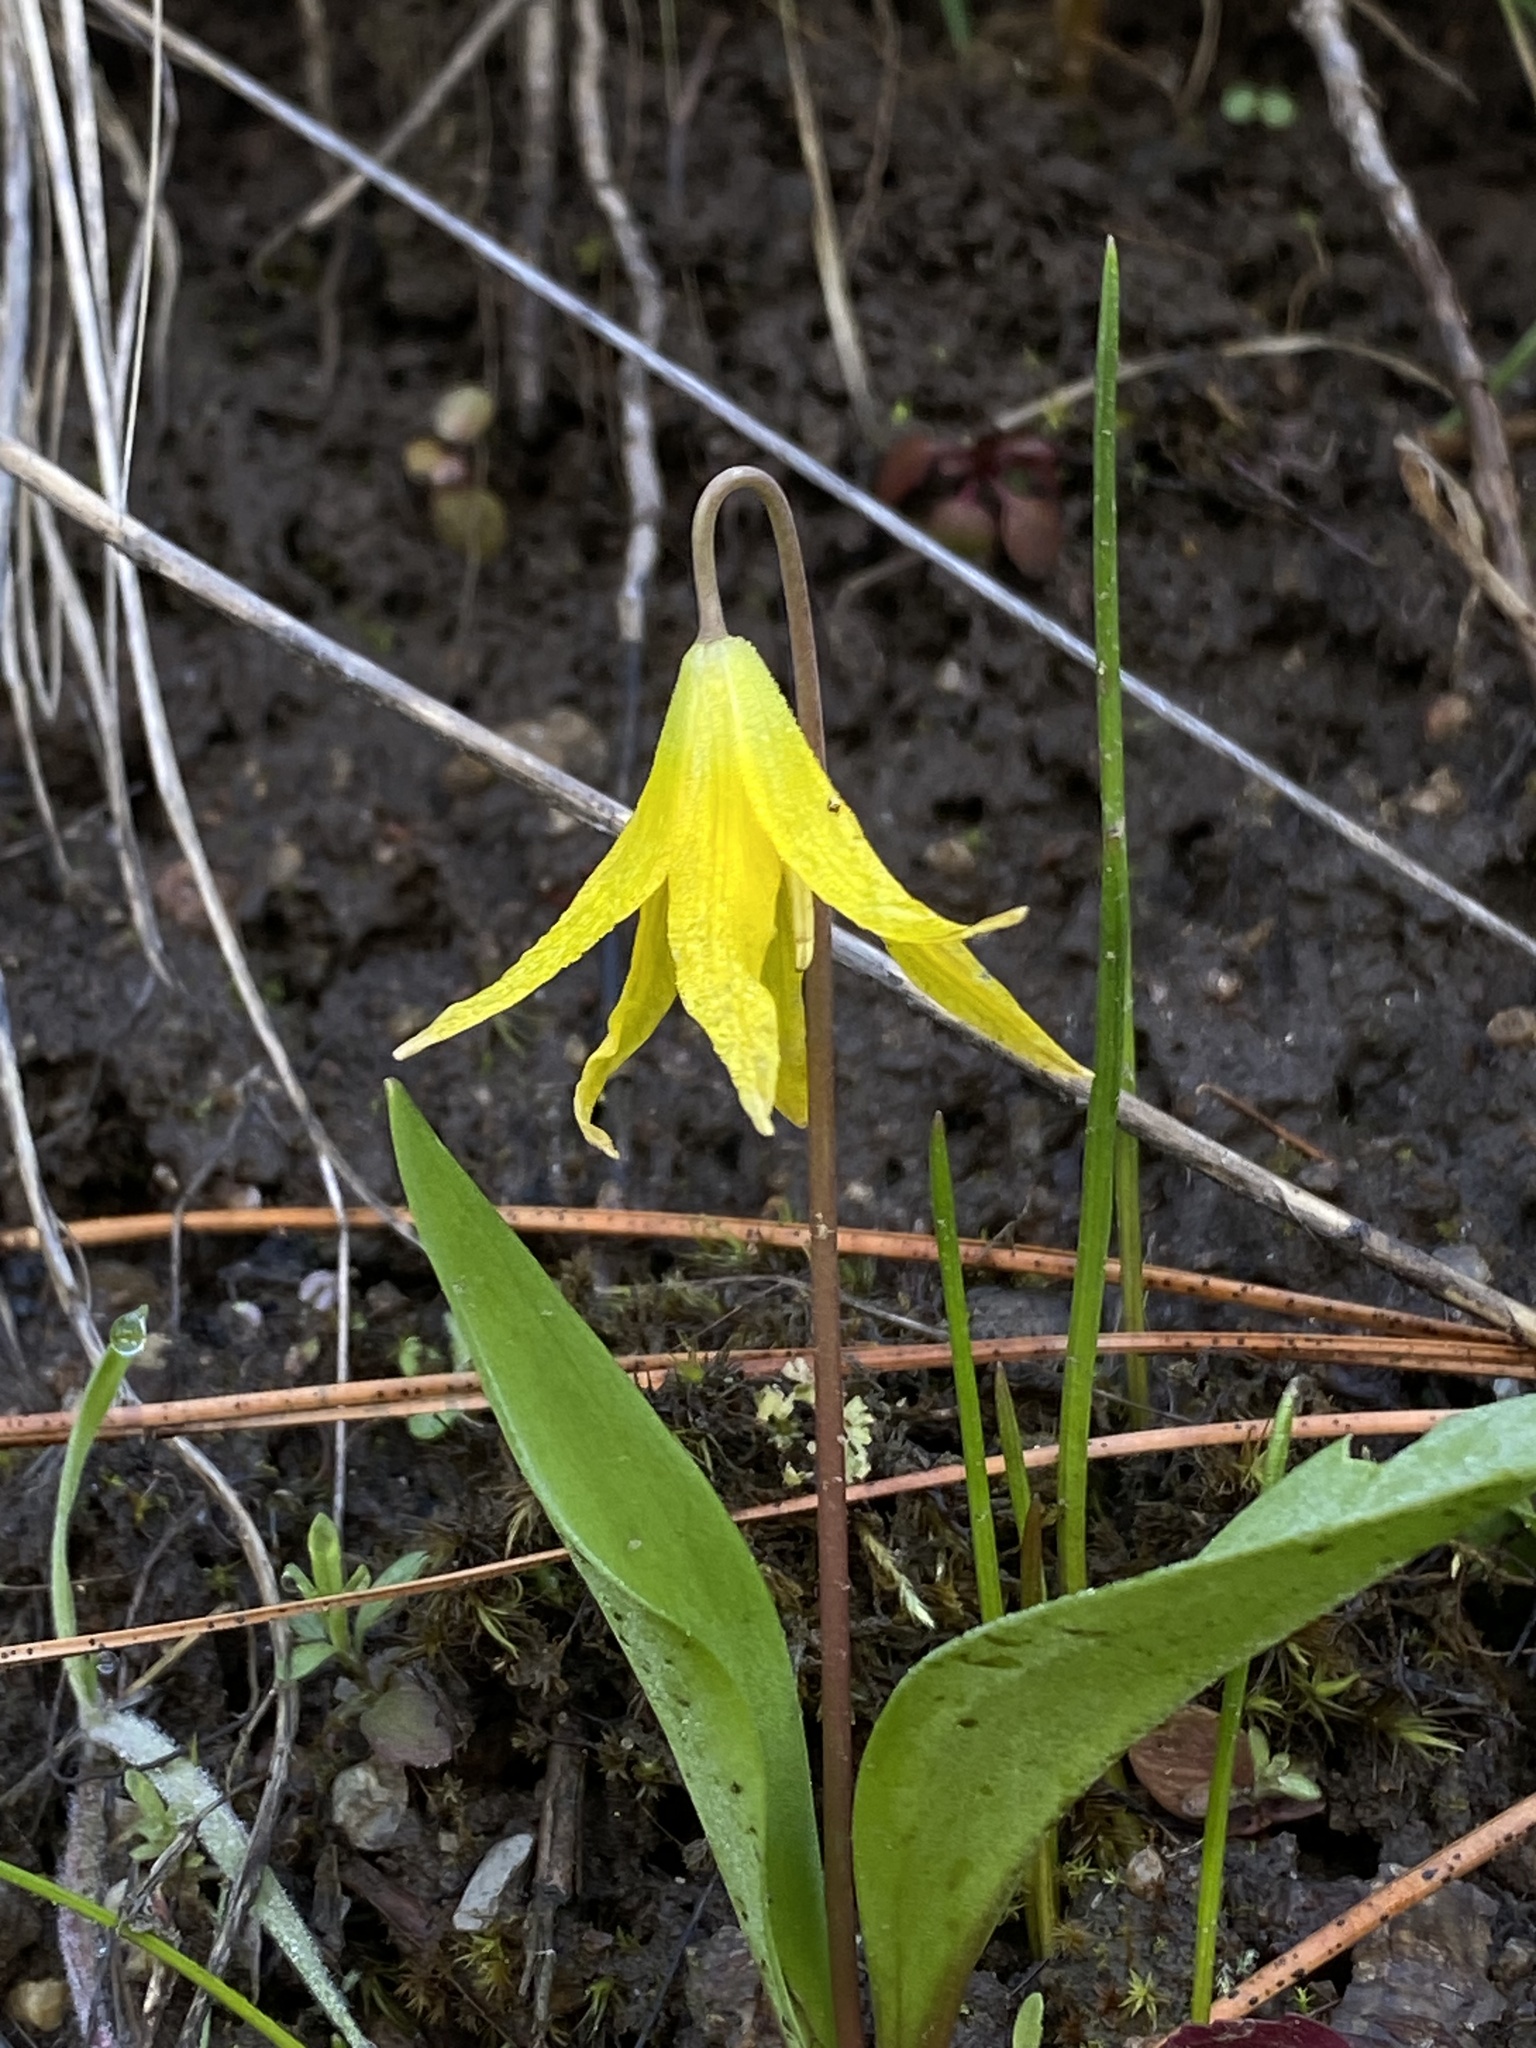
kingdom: Plantae
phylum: Tracheophyta
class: Liliopsida
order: Liliales
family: Liliaceae
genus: Erythronium
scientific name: Erythronium grandiflorum
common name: Avalanche-lily
